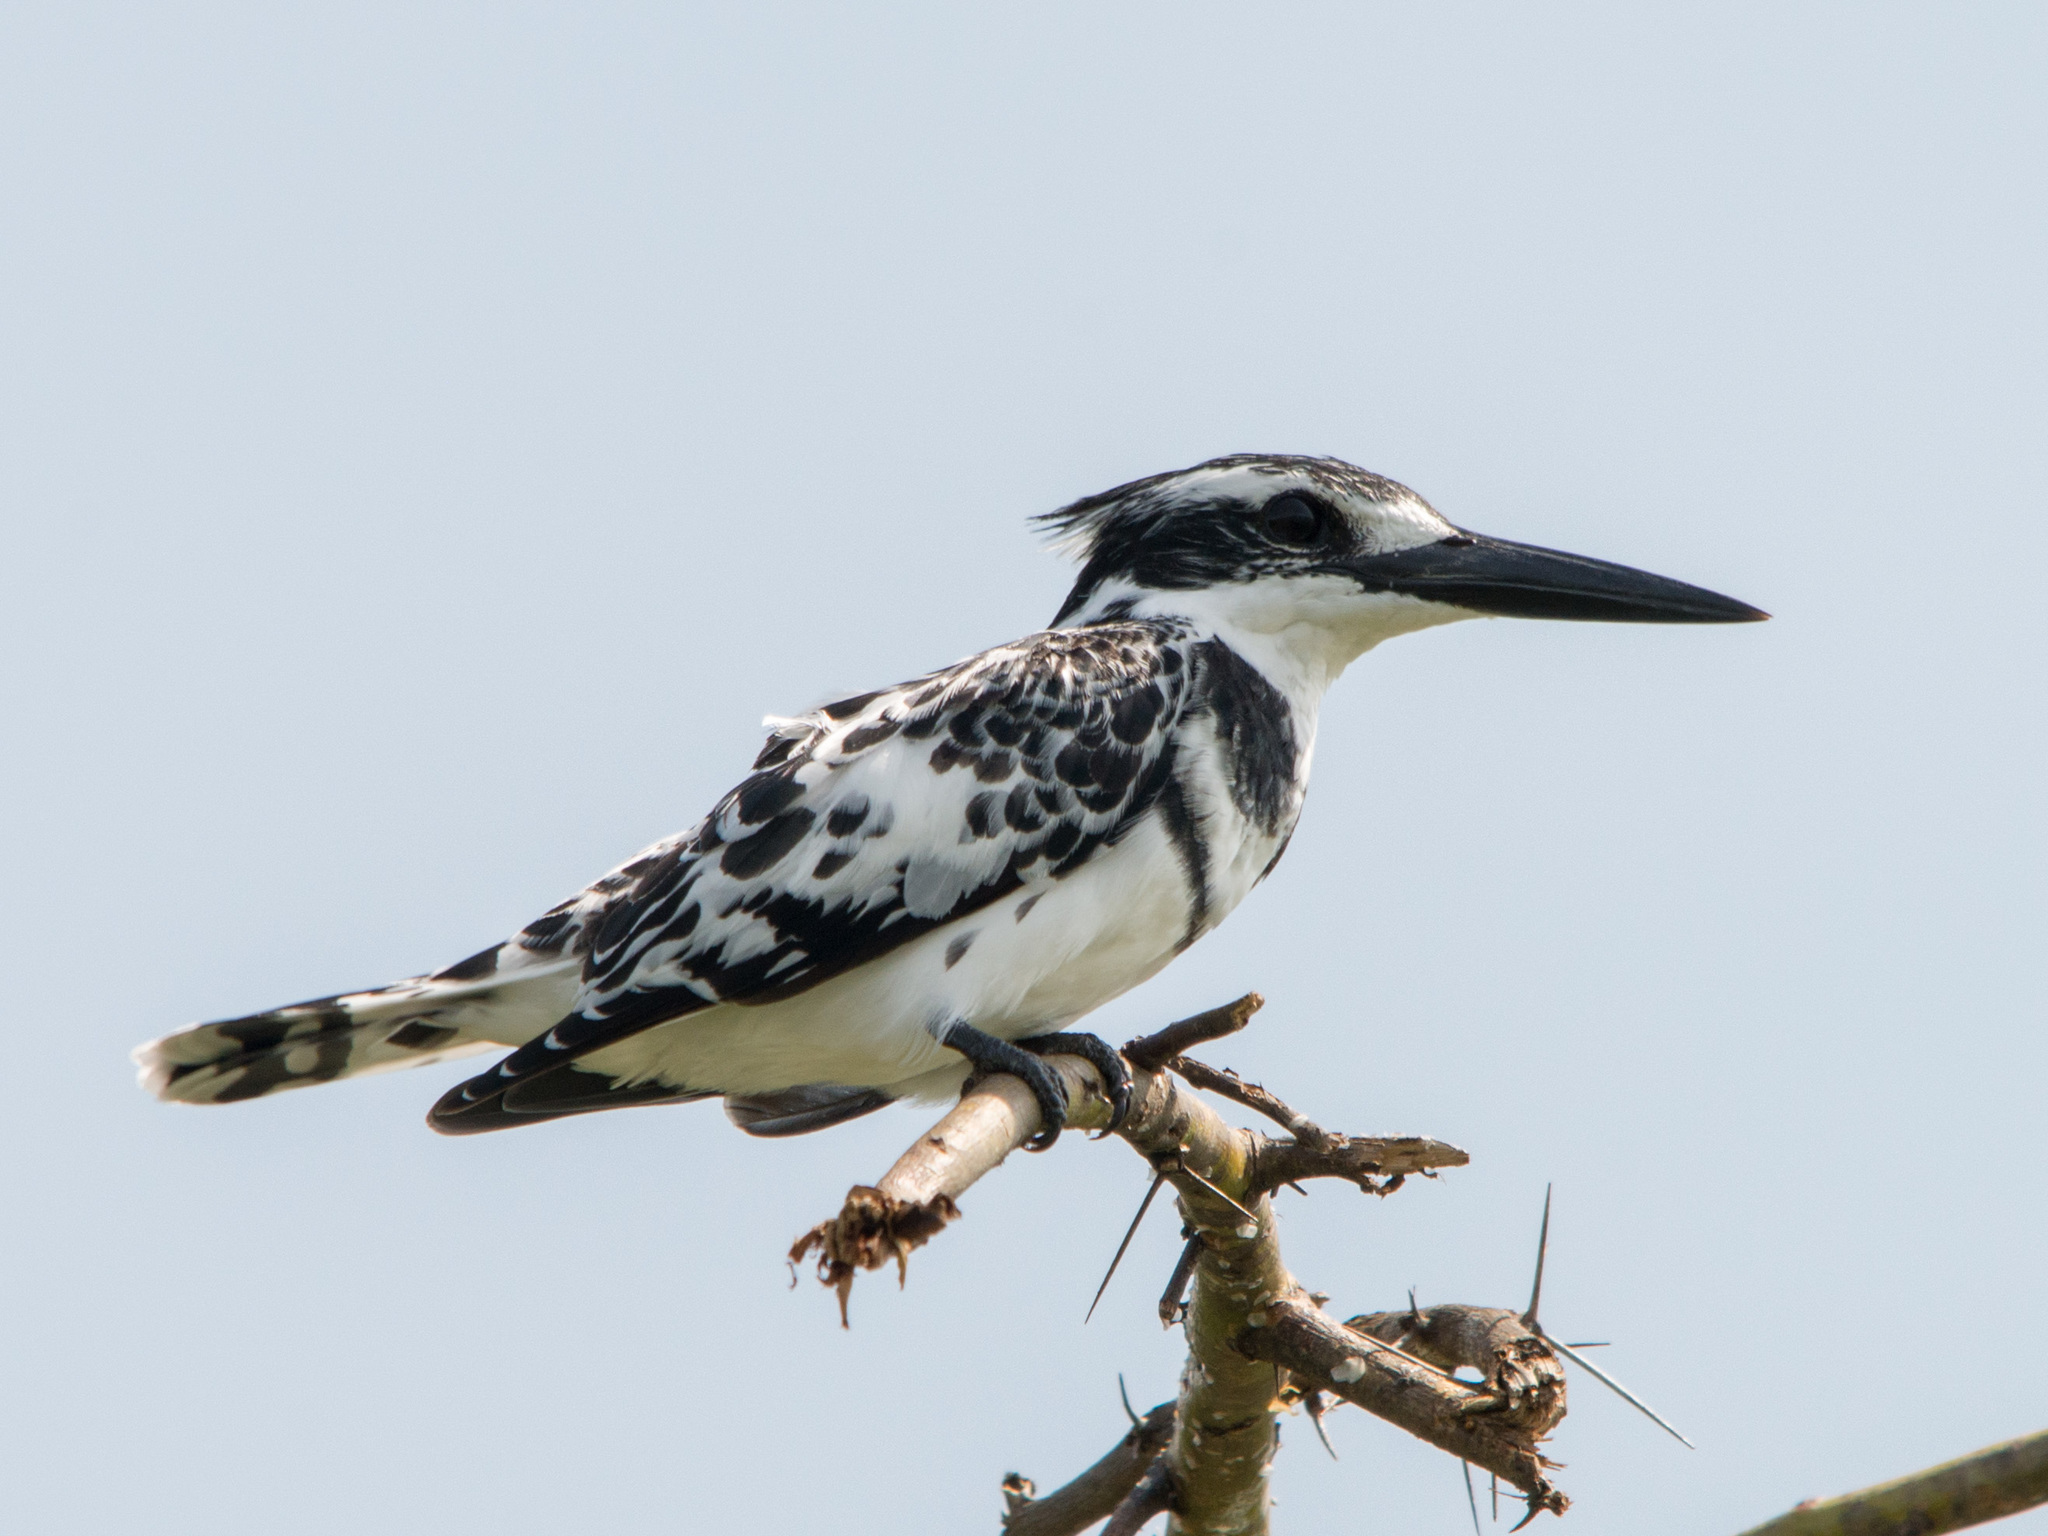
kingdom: Animalia
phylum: Chordata
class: Aves
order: Coraciiformes
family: Alcedinidae
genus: Ceryle
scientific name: Ceryle rudis
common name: Pied kingfisher
